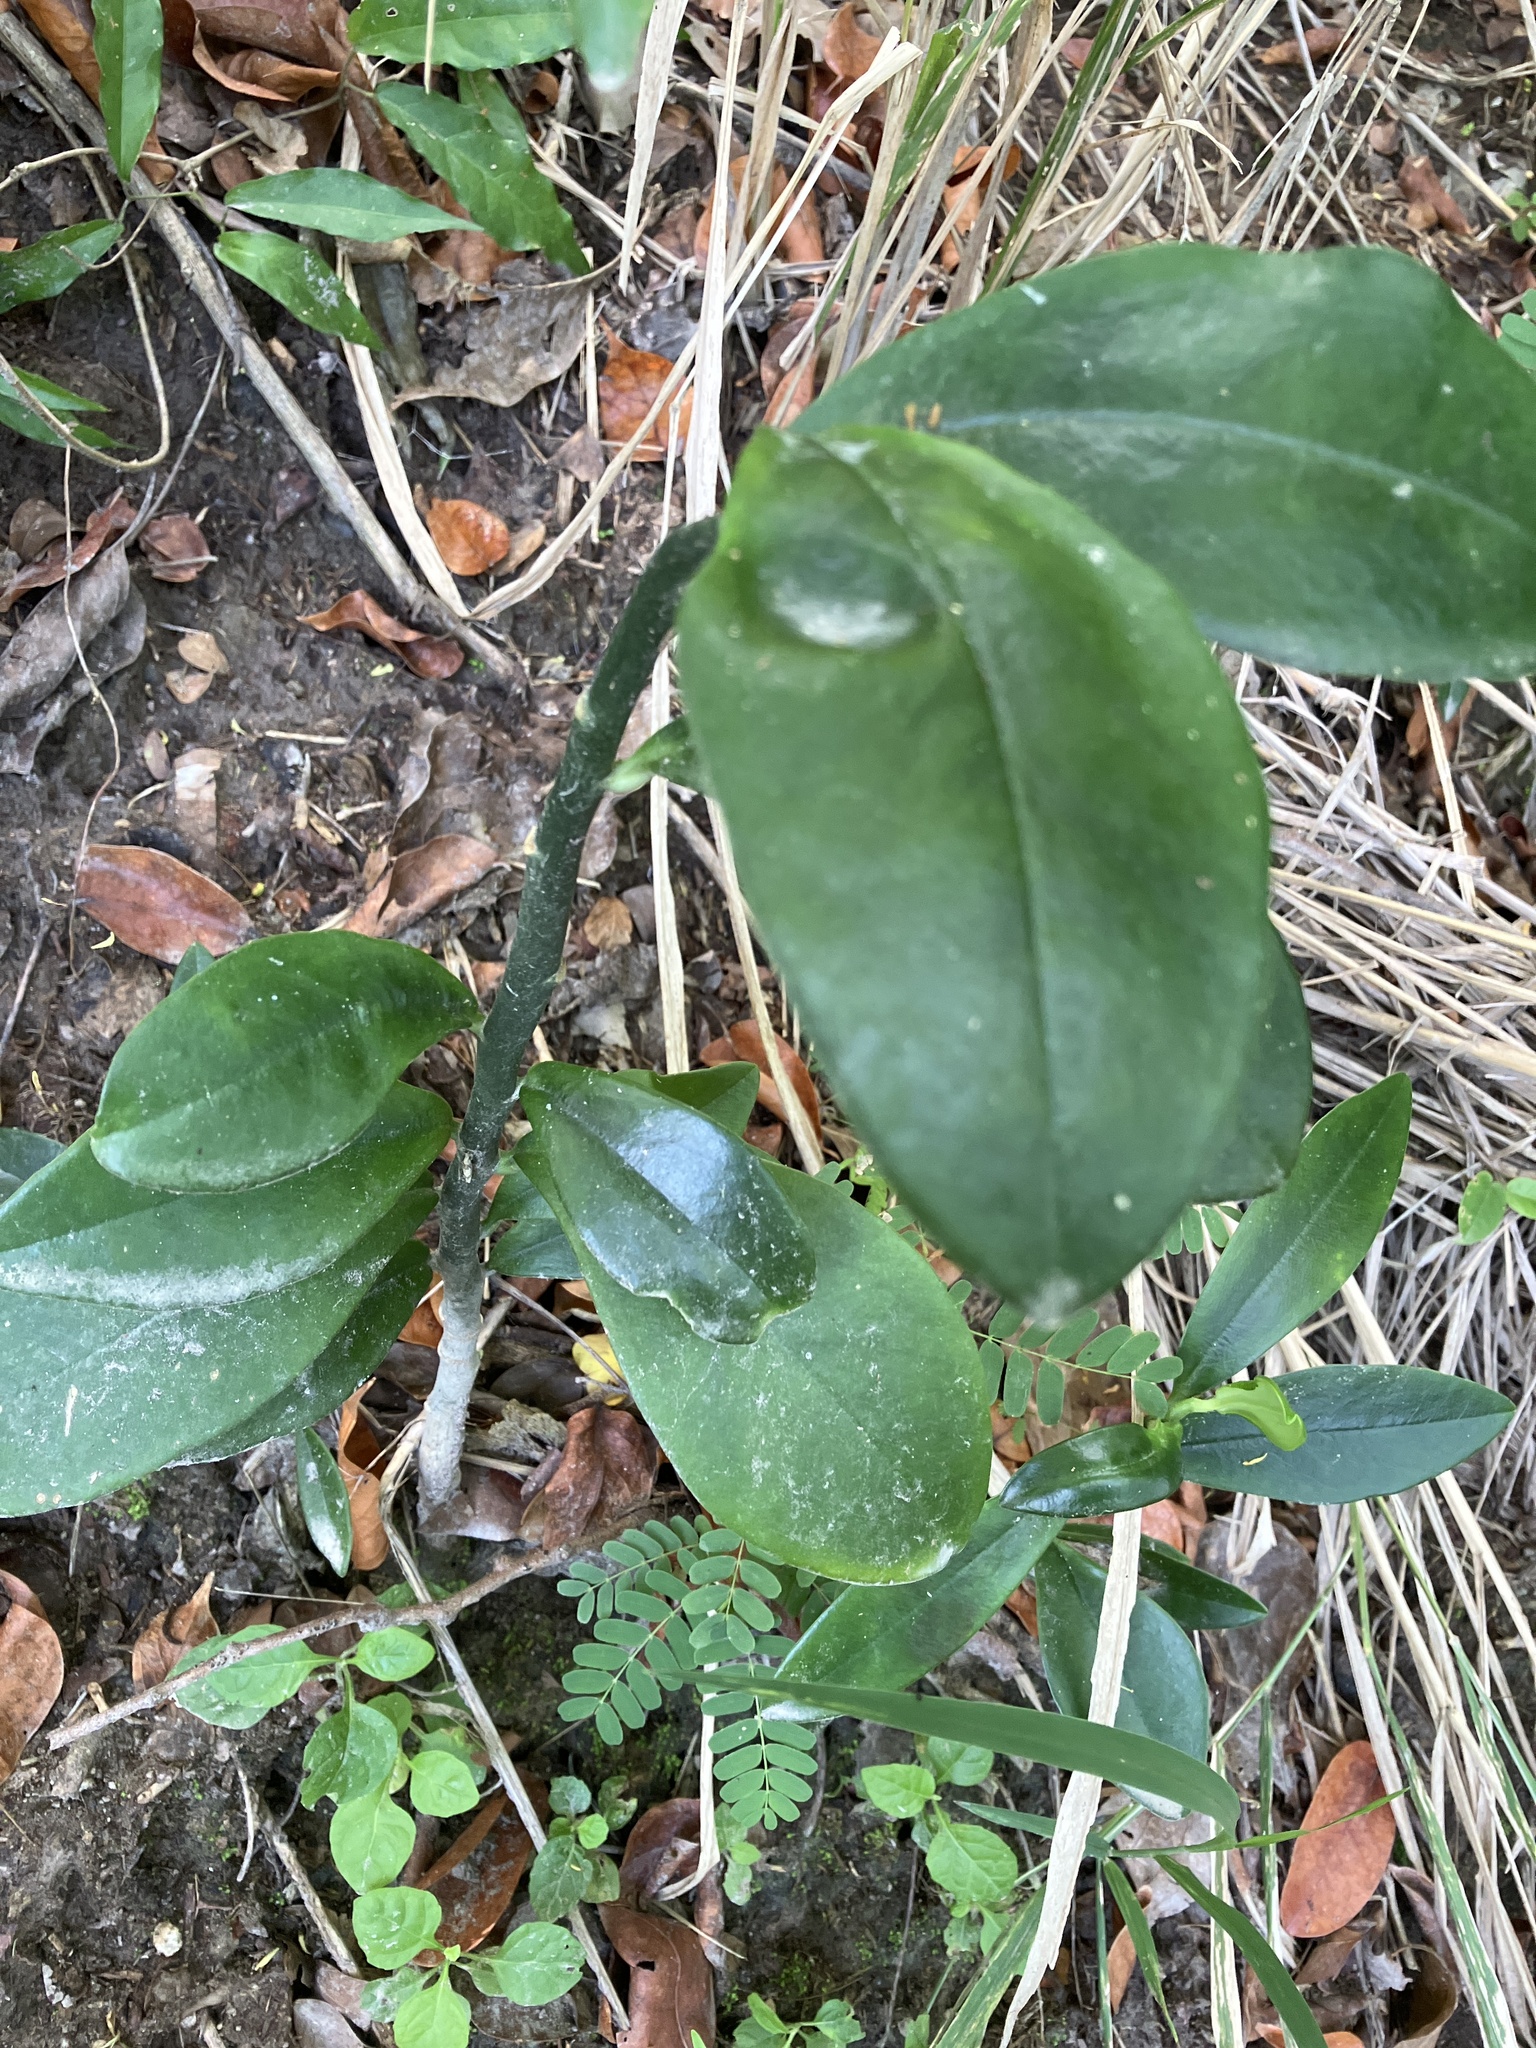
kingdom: Plantae
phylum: Tracheophyta
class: Magnoliopsida
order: Malpighiales
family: Euphorbiaceae
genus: Euphorbia
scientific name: Euphorbia tithymaloides
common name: Slipperplant
